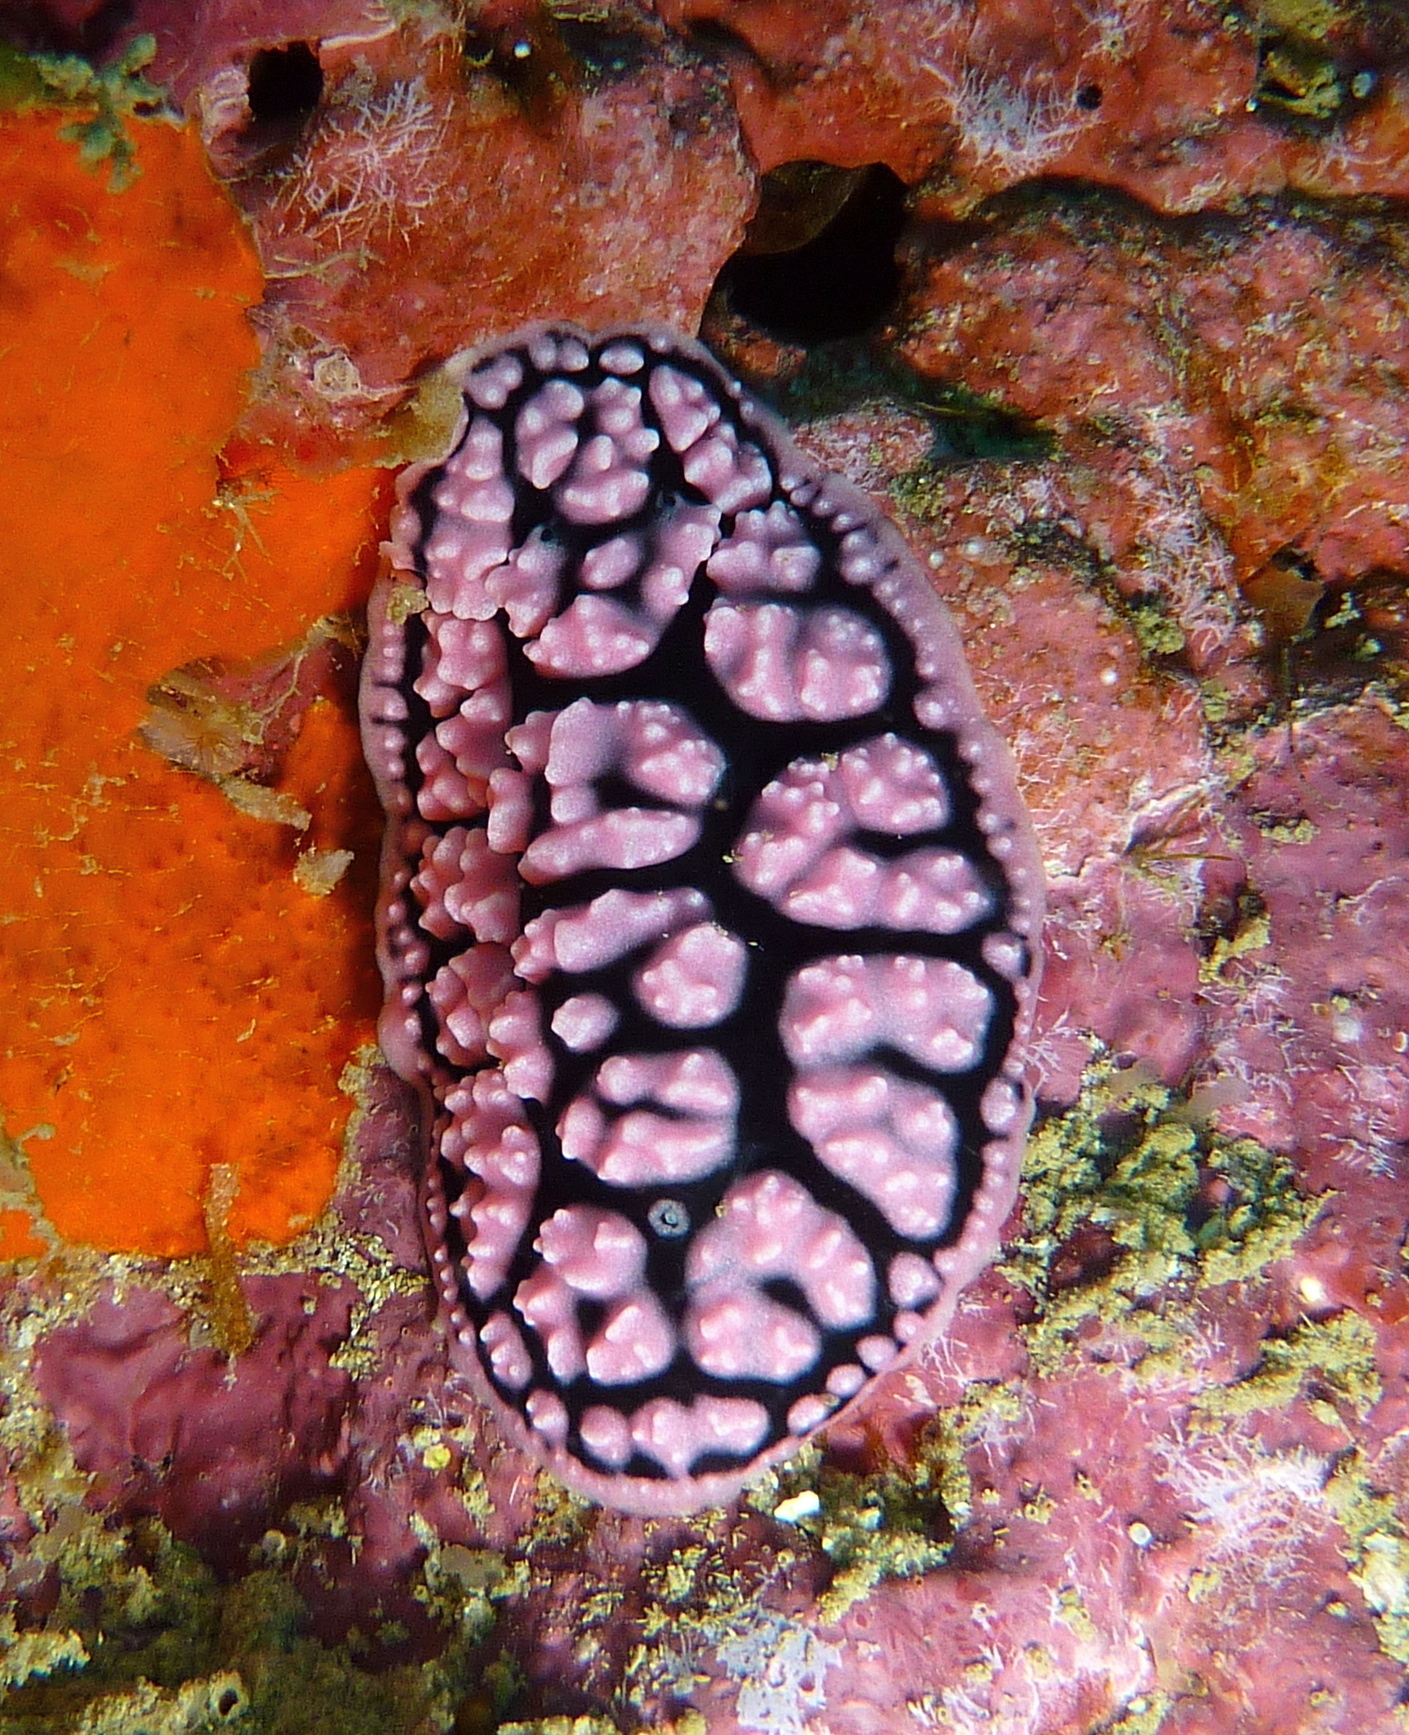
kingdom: Animalia
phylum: Mollusca
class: Gastropoda
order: Nudibranchia
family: Phyllidiidae
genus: Phyllidiella
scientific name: Phyllidiella pustulosa
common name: Pustular phyllidia
